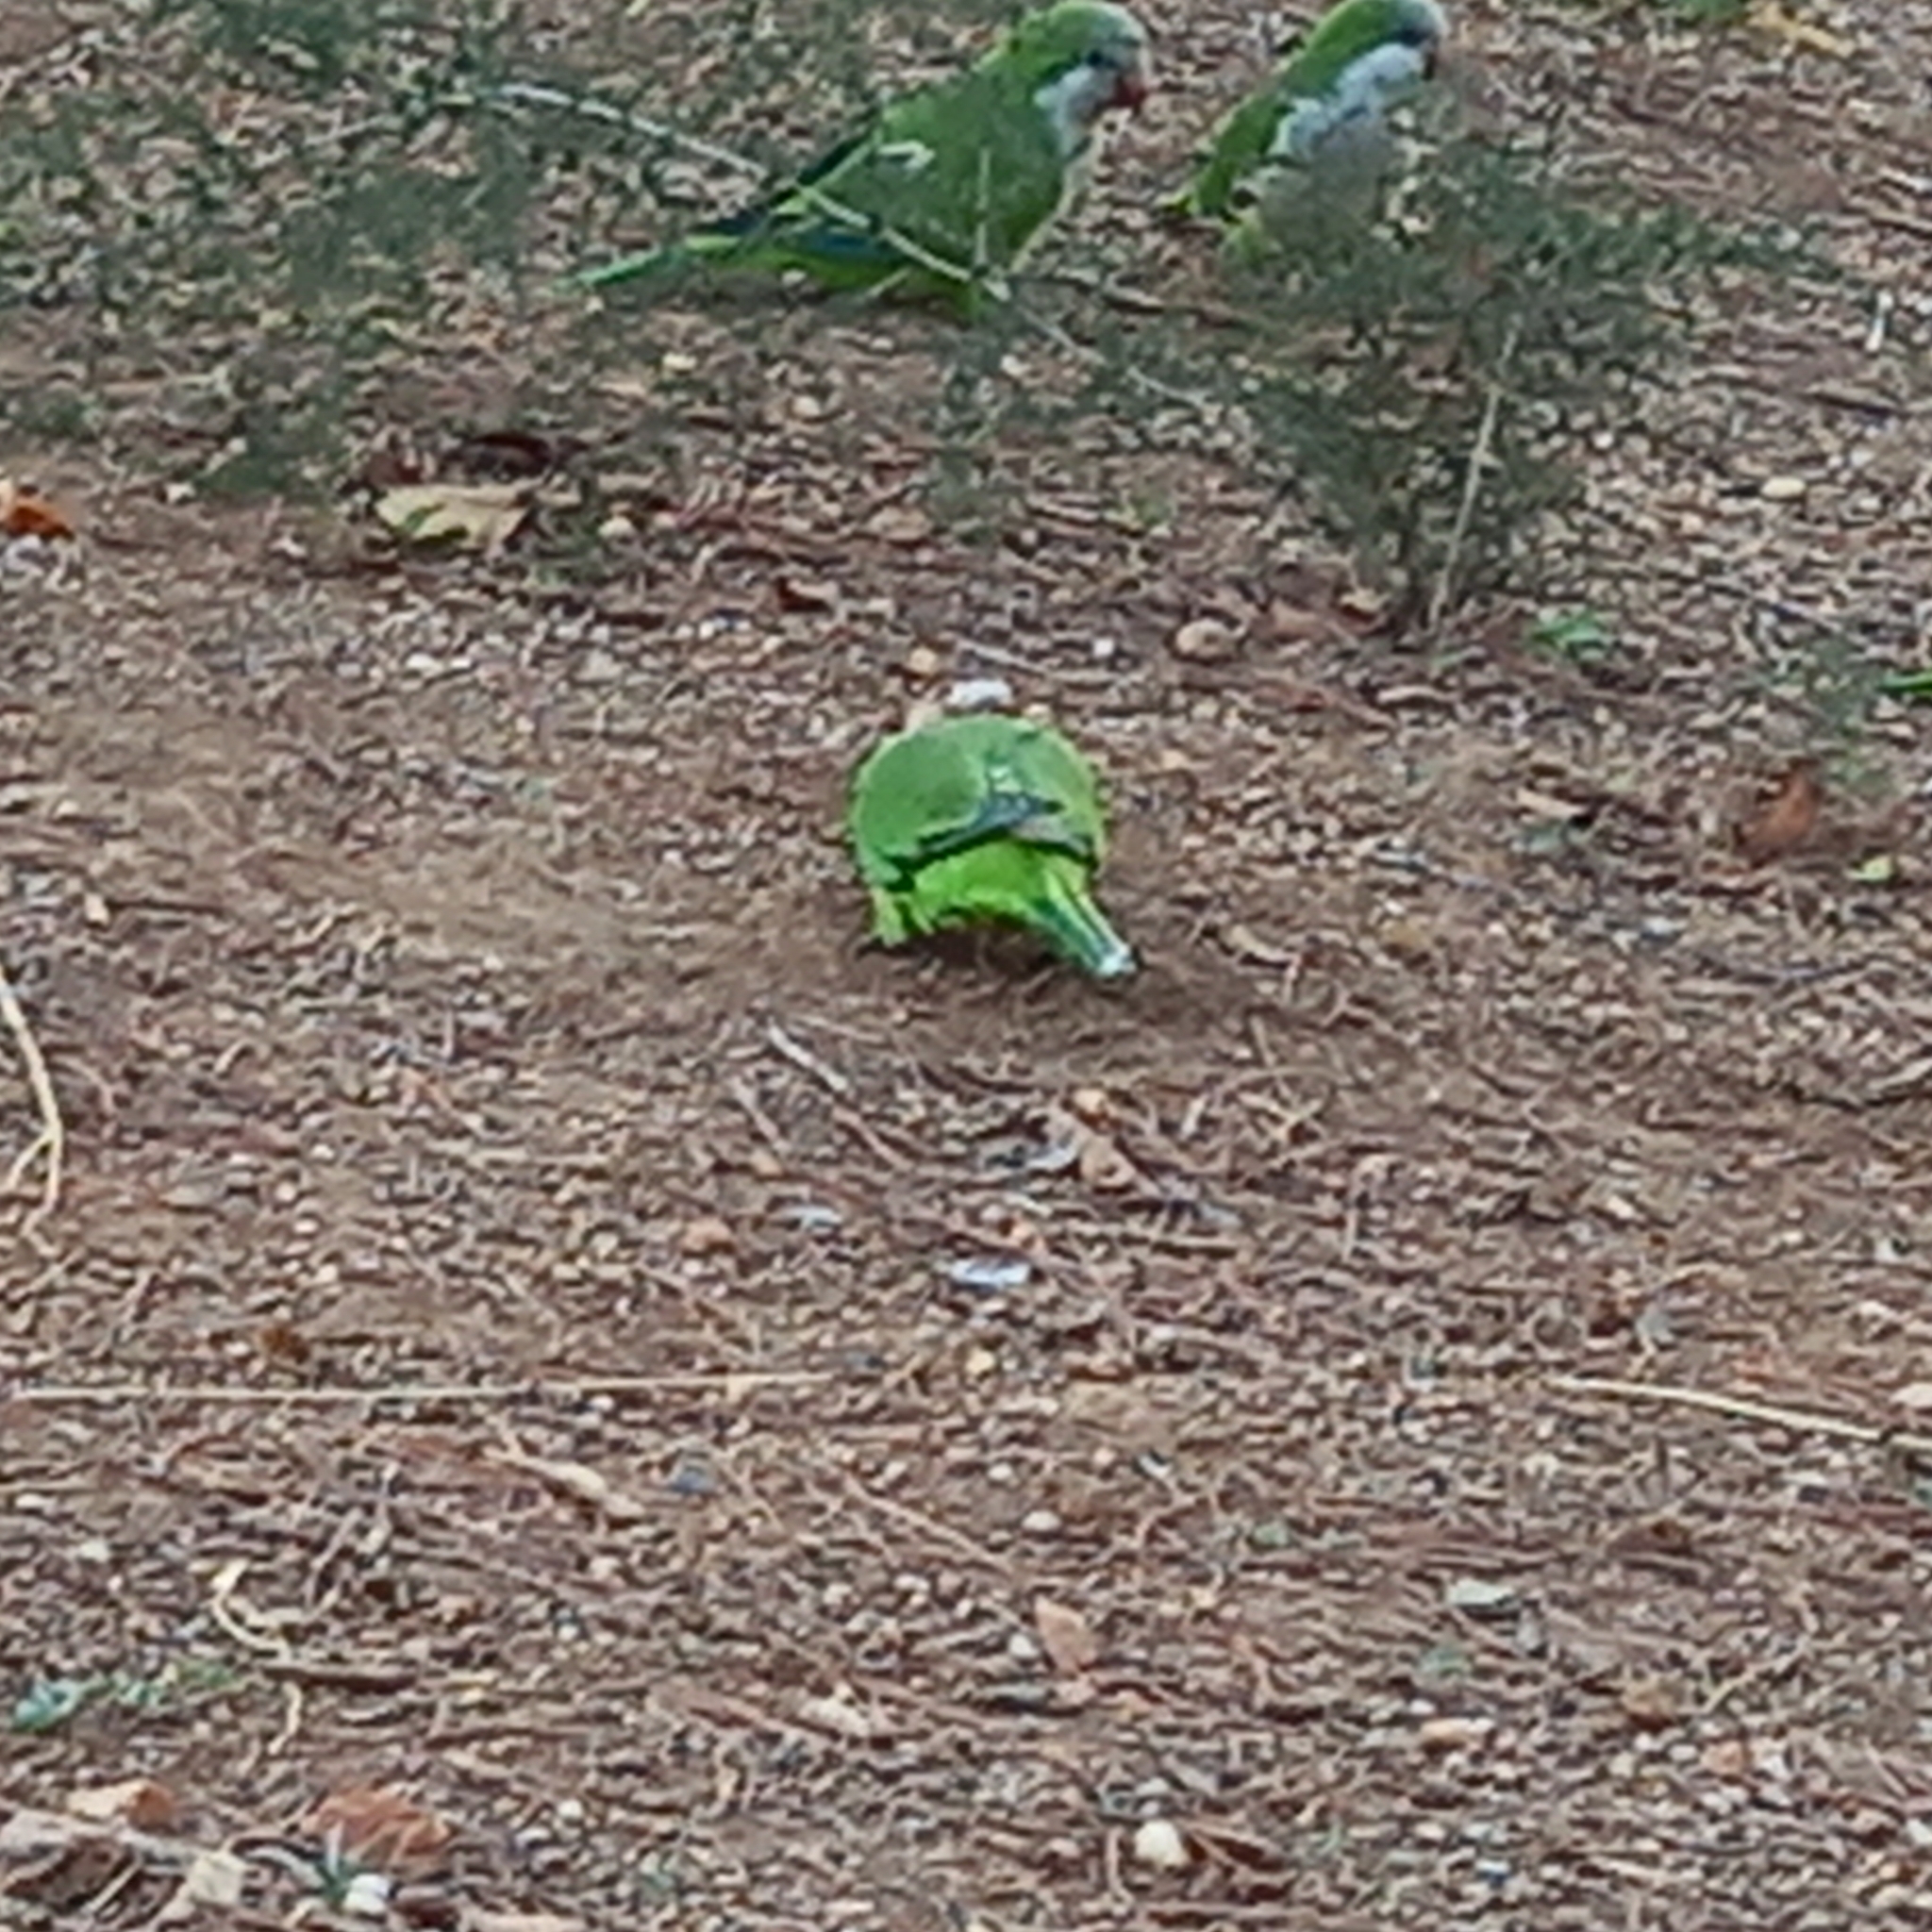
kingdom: Animalia
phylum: Chordata
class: Aves
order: Psittaciformes
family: Psittacidae
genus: Myiopsitta
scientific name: Myiopsitta monachus
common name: Monk parakeet
